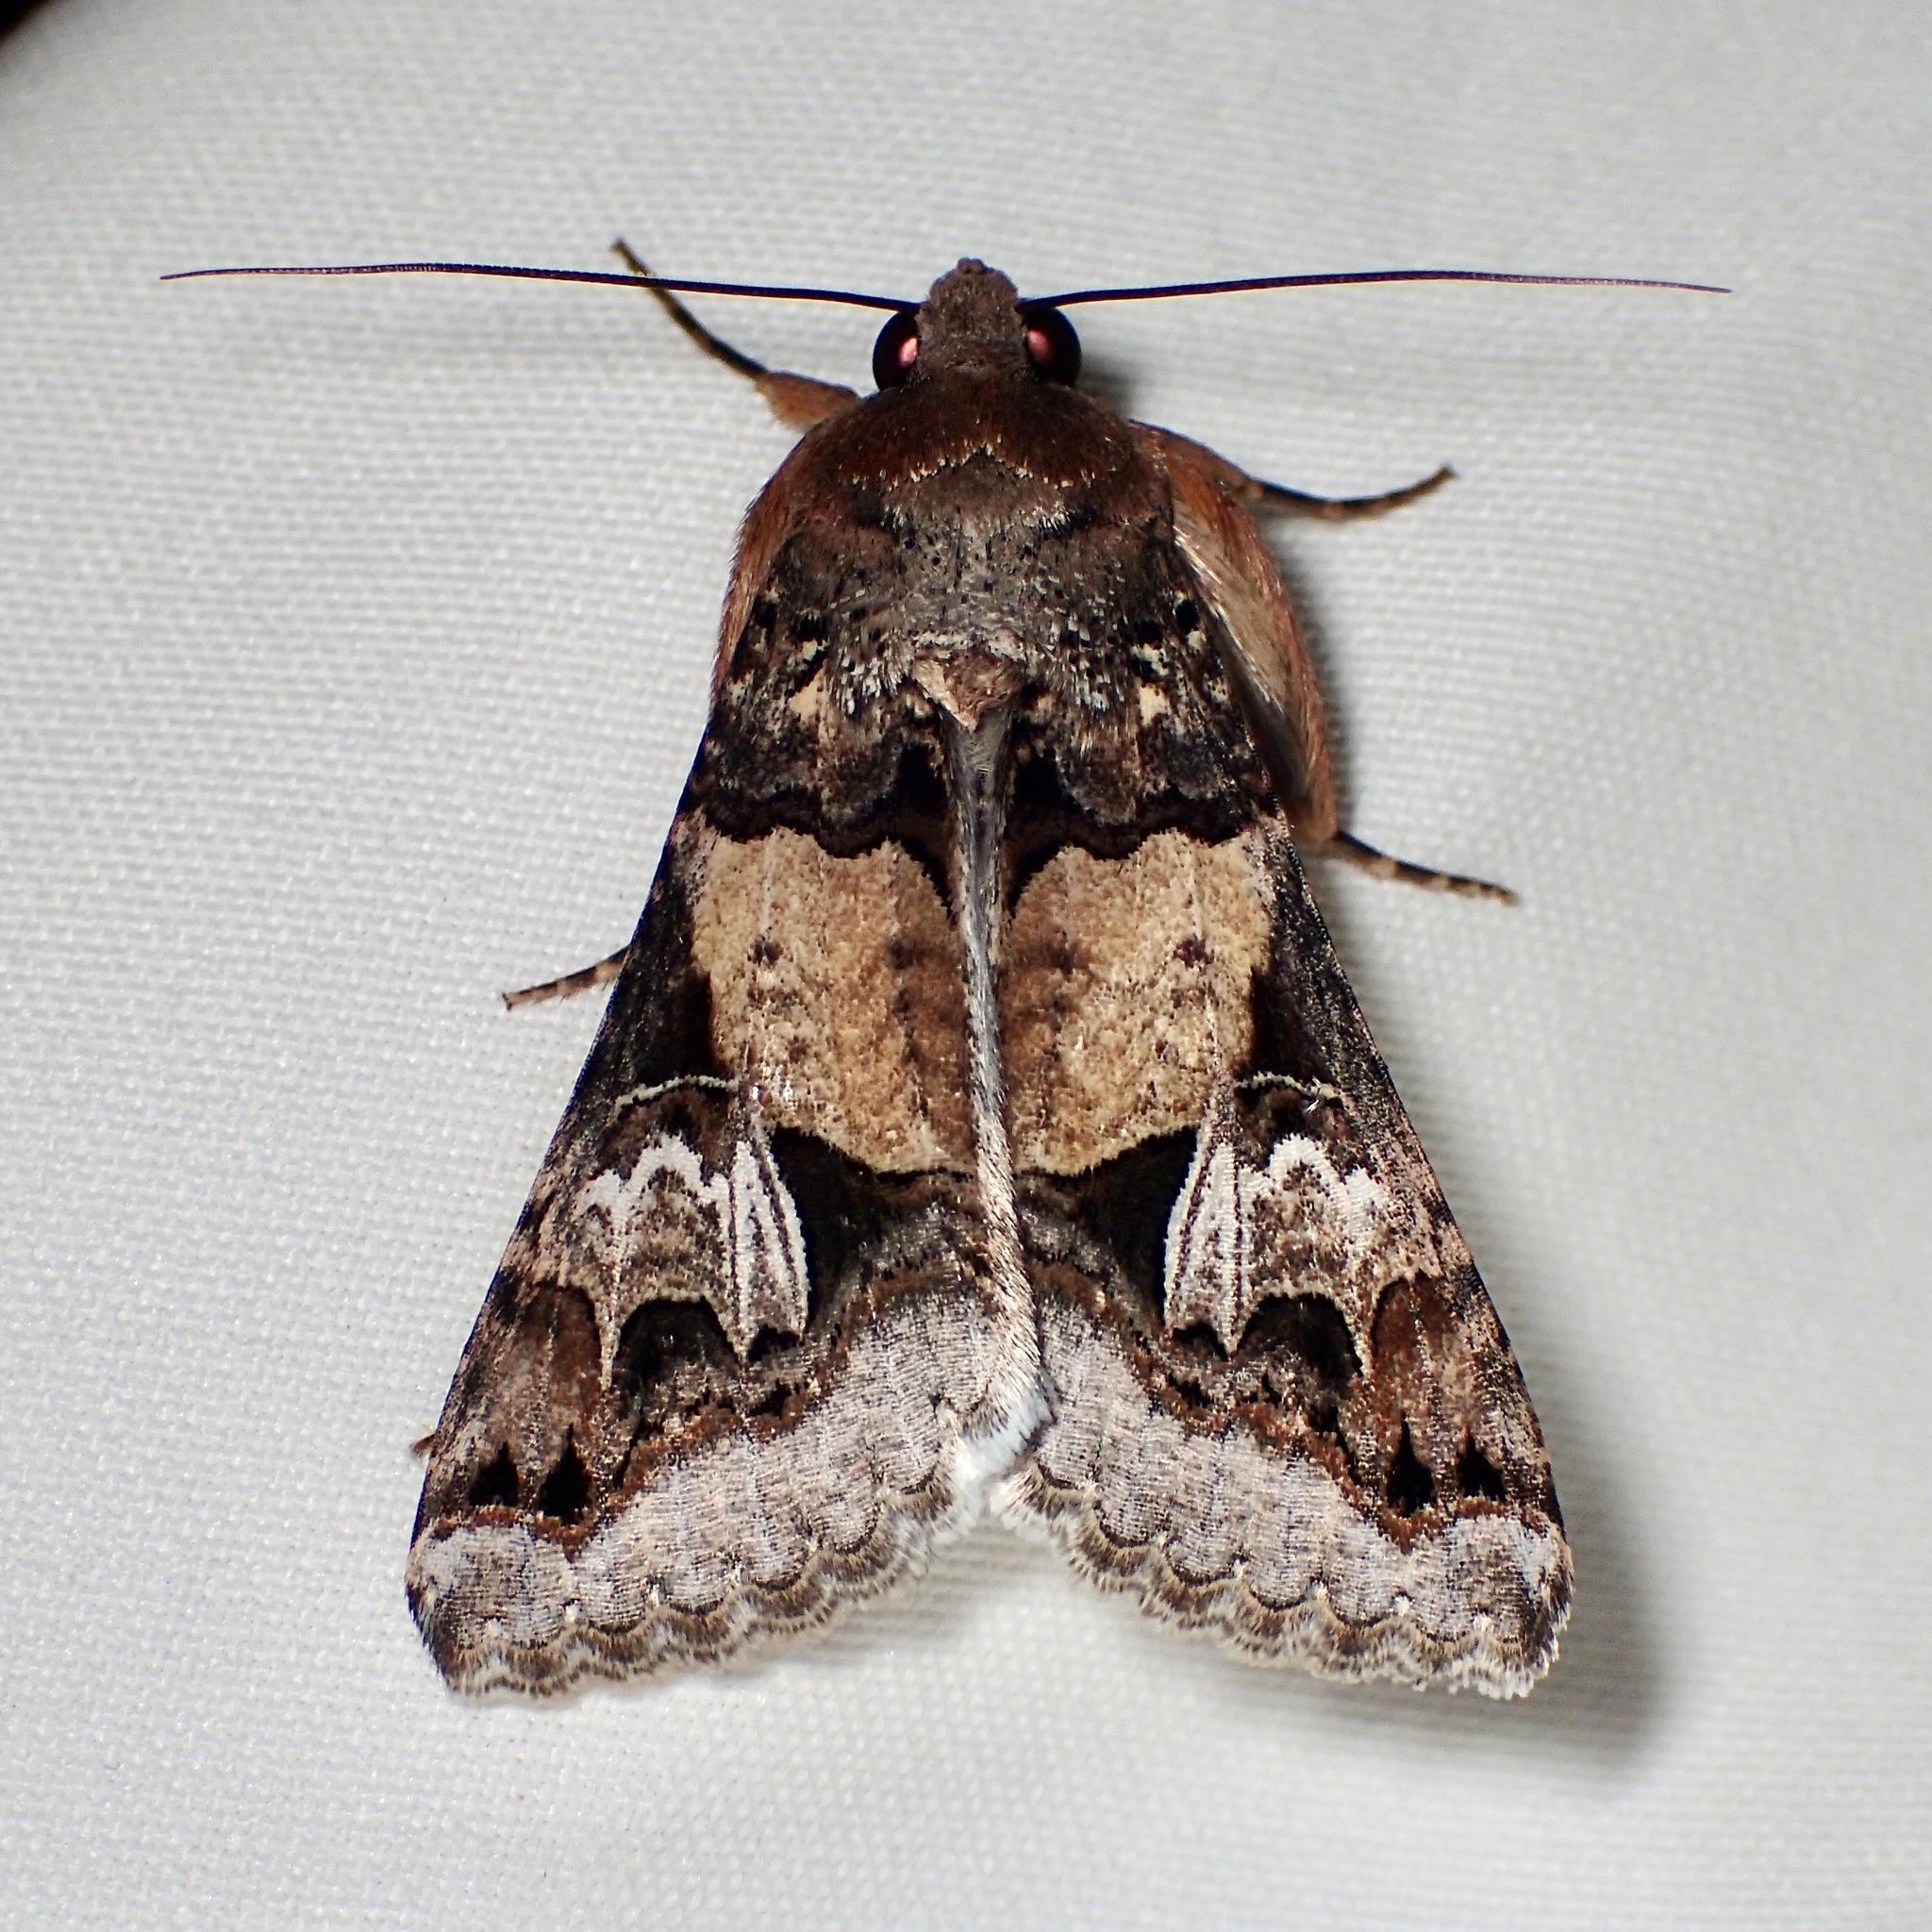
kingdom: Animalia
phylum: Arthropoda
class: Insecta
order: Lepidoptera
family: Erebidae
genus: Melipotis
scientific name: Melipotis novanda
